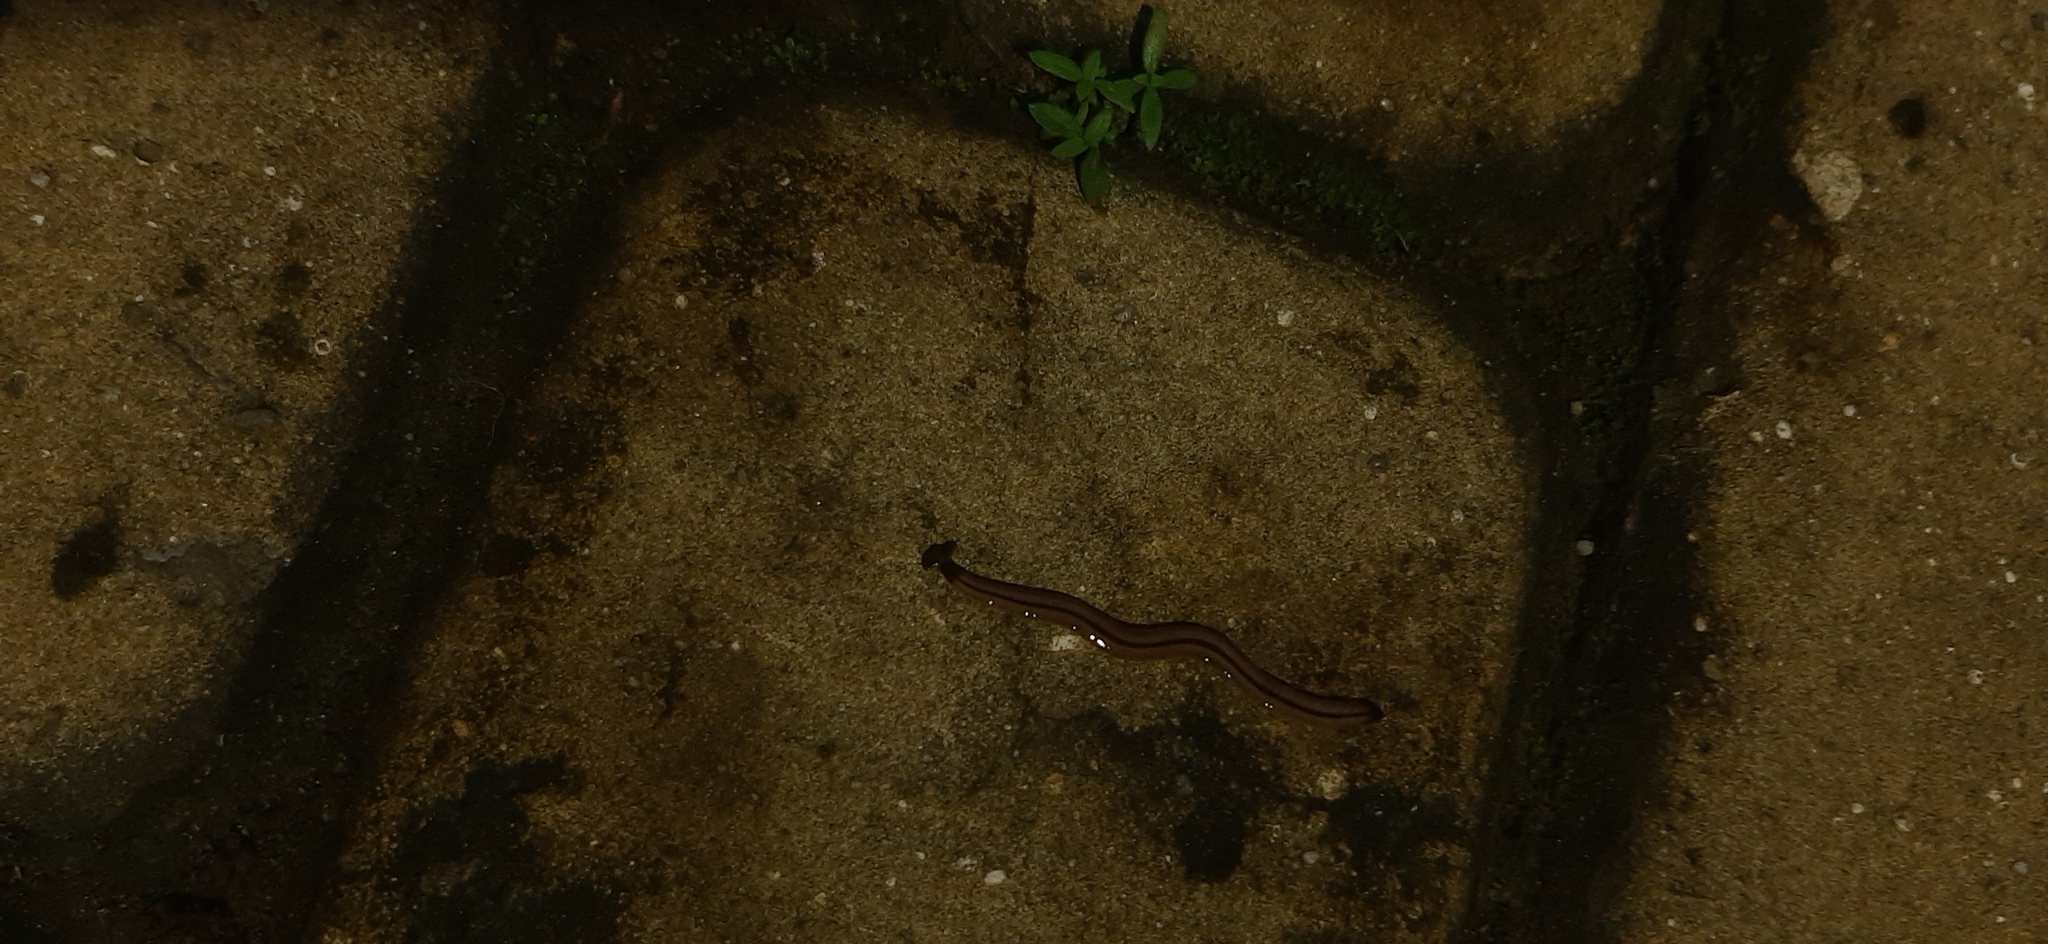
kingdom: Animalia
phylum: Platyhelminthes
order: Tricladida
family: Geoplanidae
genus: Bipalium
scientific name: Bipalium vagum
